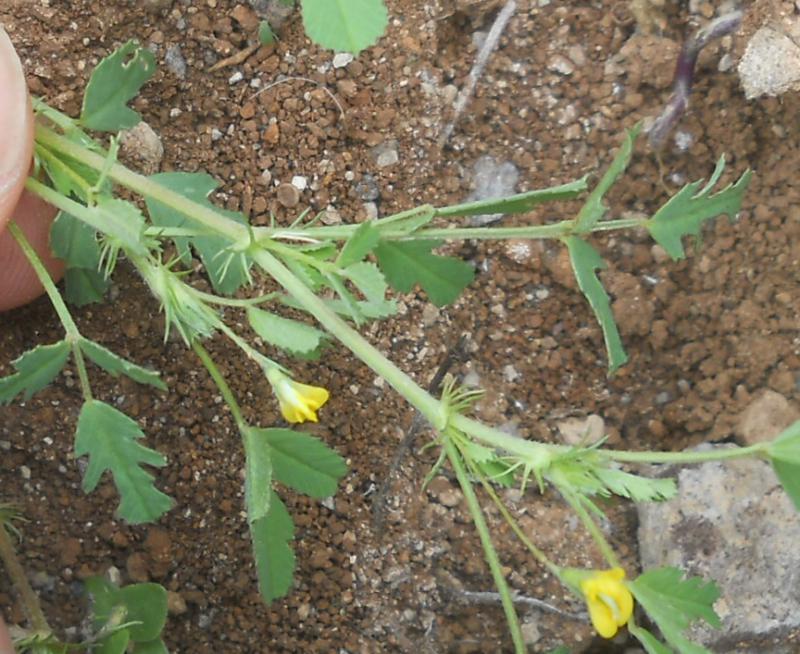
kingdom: Plantae
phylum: Tracheophyta
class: Magnoliopsida
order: Fabales
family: Fabaceae
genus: Medicago
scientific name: Medicago laciniata
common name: Tattered medick
